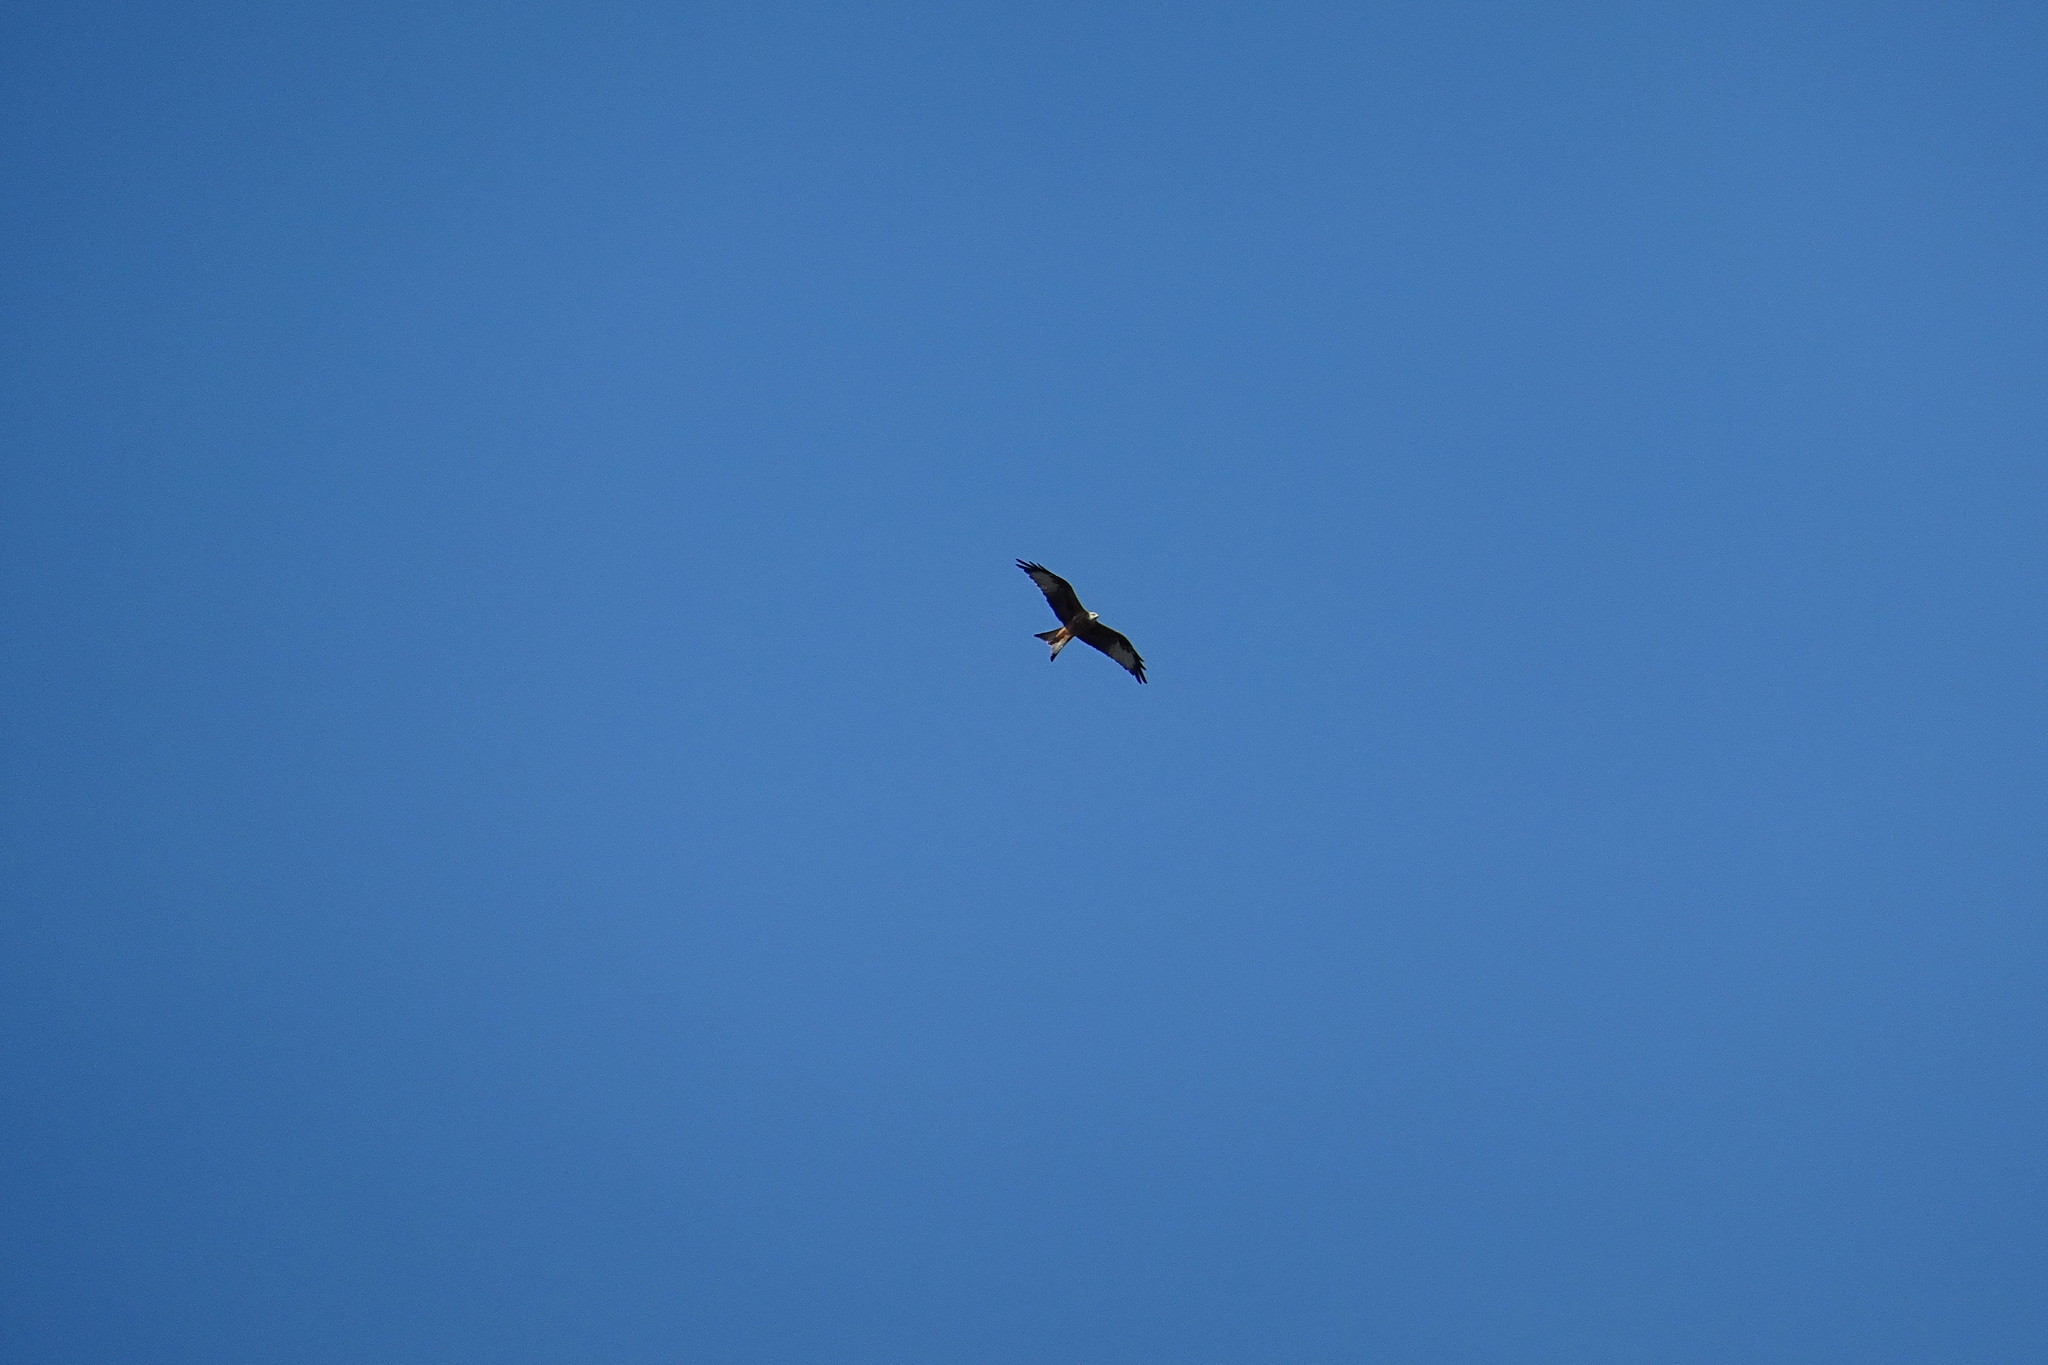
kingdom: Animalia
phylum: Chordata
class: Aves
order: Accipitriformes
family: Accipitridae
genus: Milvus
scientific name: Milvus milvus
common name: Red kite
